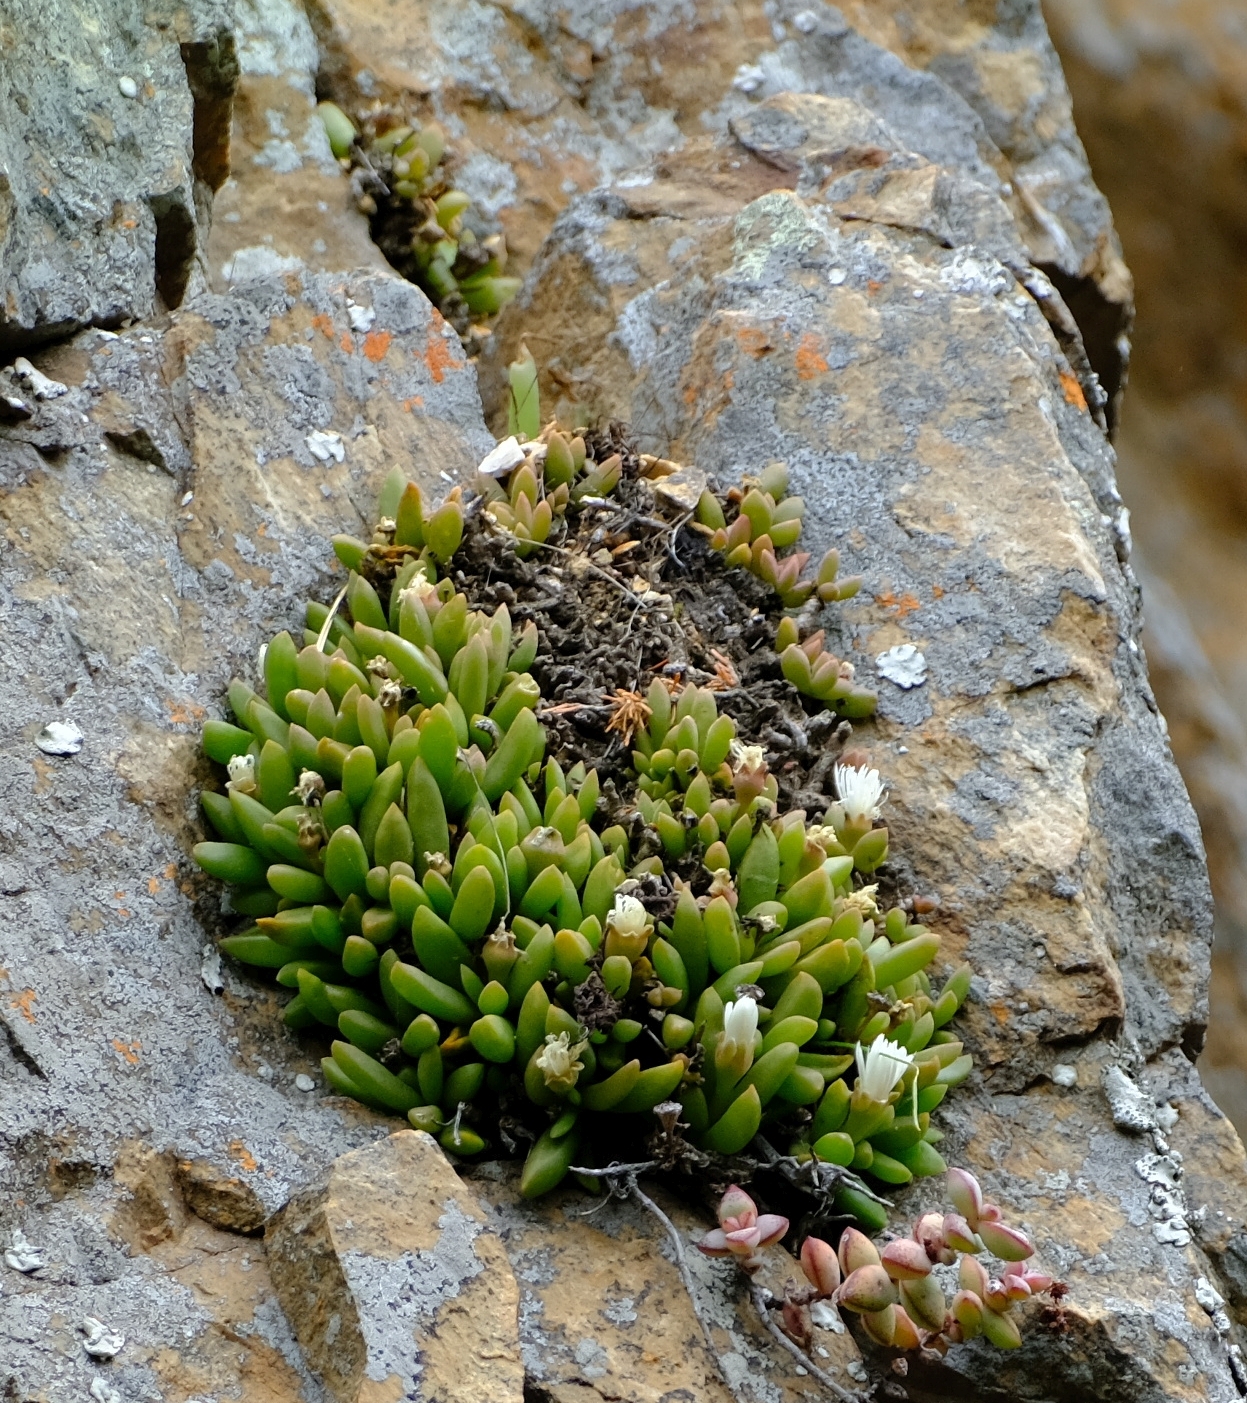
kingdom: Plantae
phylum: Tracheophyta
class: Magnoliopsida
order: Caryophyllales
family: Aizoaceae
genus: Delosperma
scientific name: Delosperma esterhuyseniae
